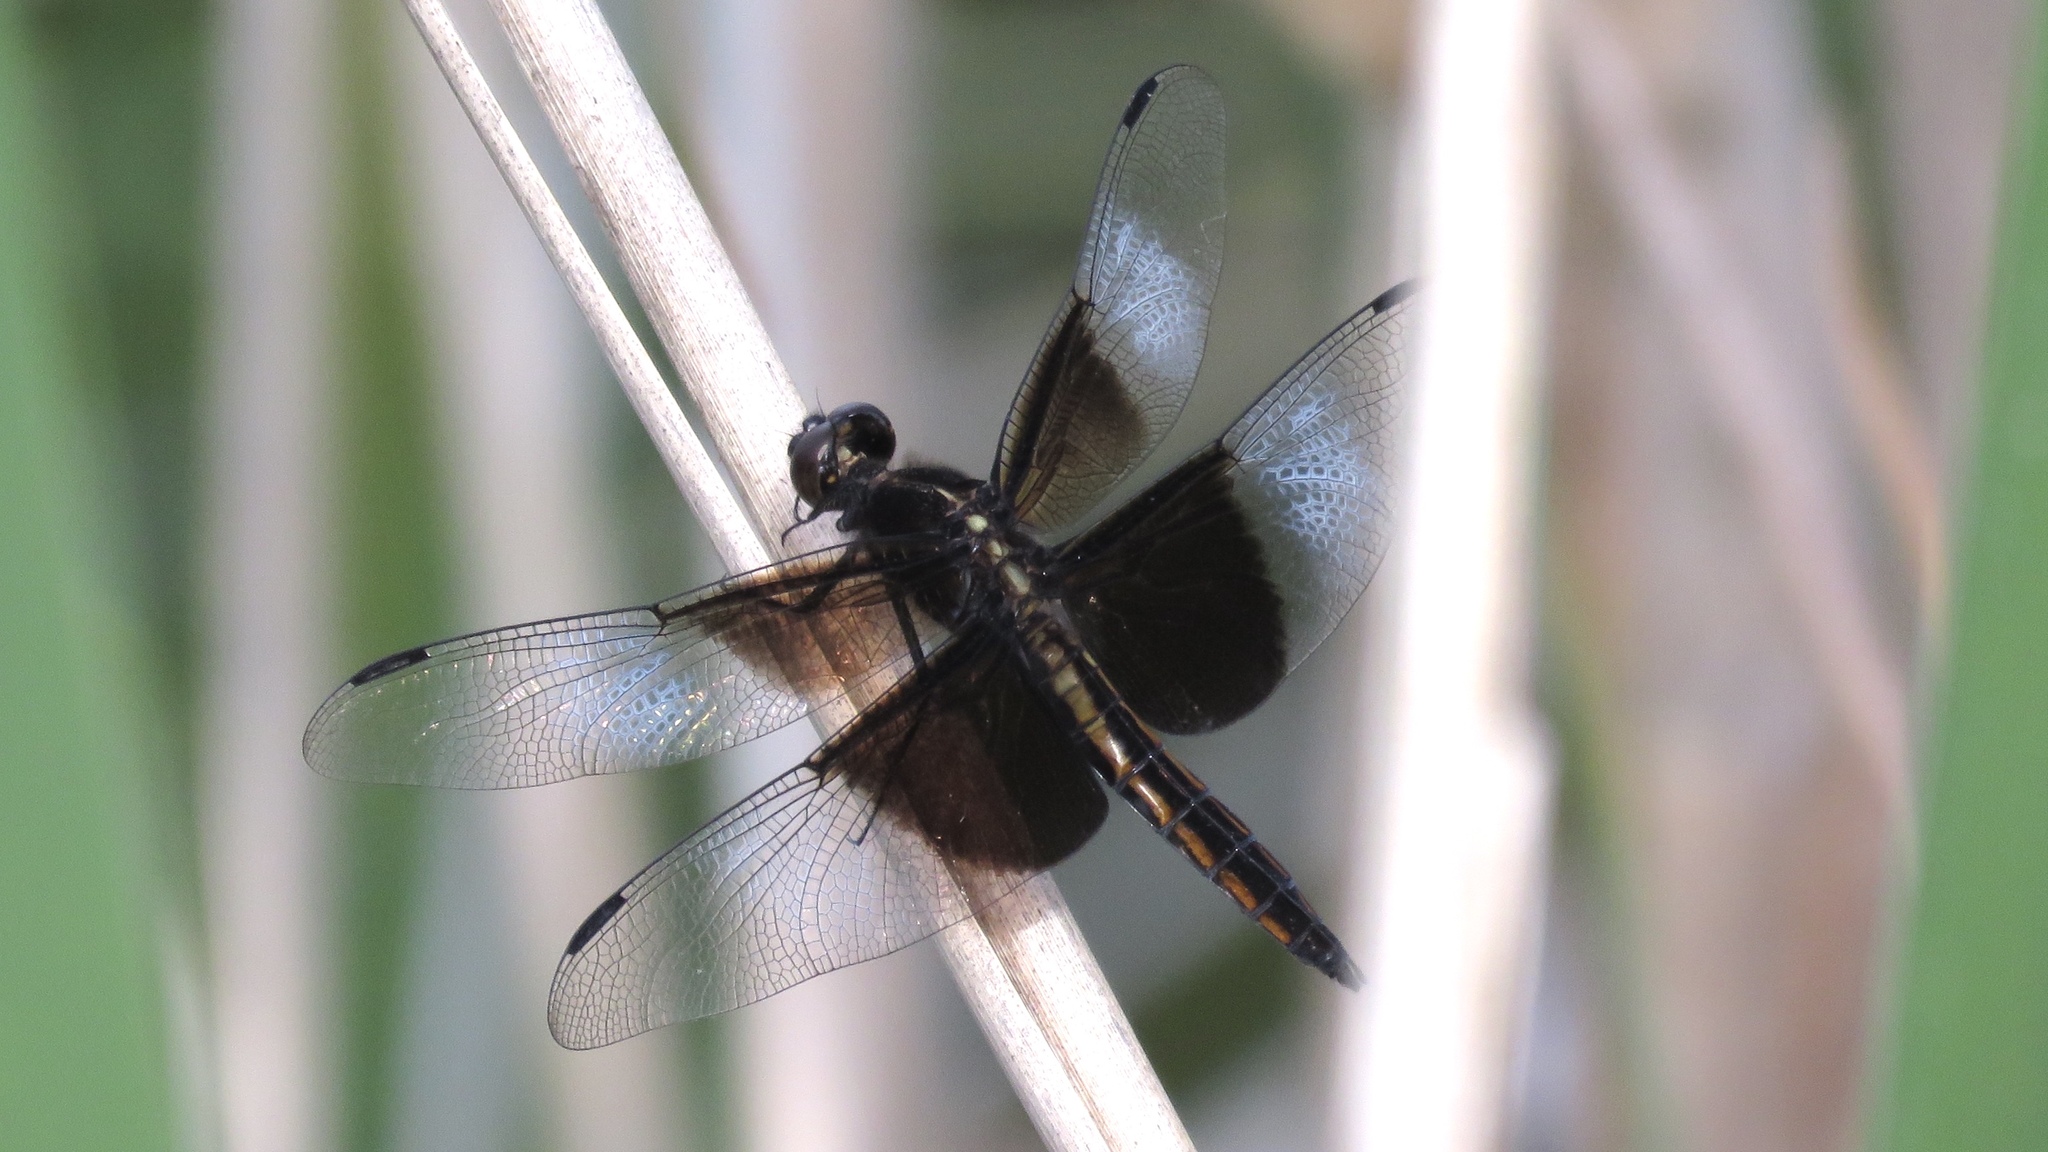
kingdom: Animalia
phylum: Arthropoda
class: Insecta
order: Odonata
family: Libellulidae
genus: Libellula
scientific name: Libellula luctuosa
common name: Widow skimmer
